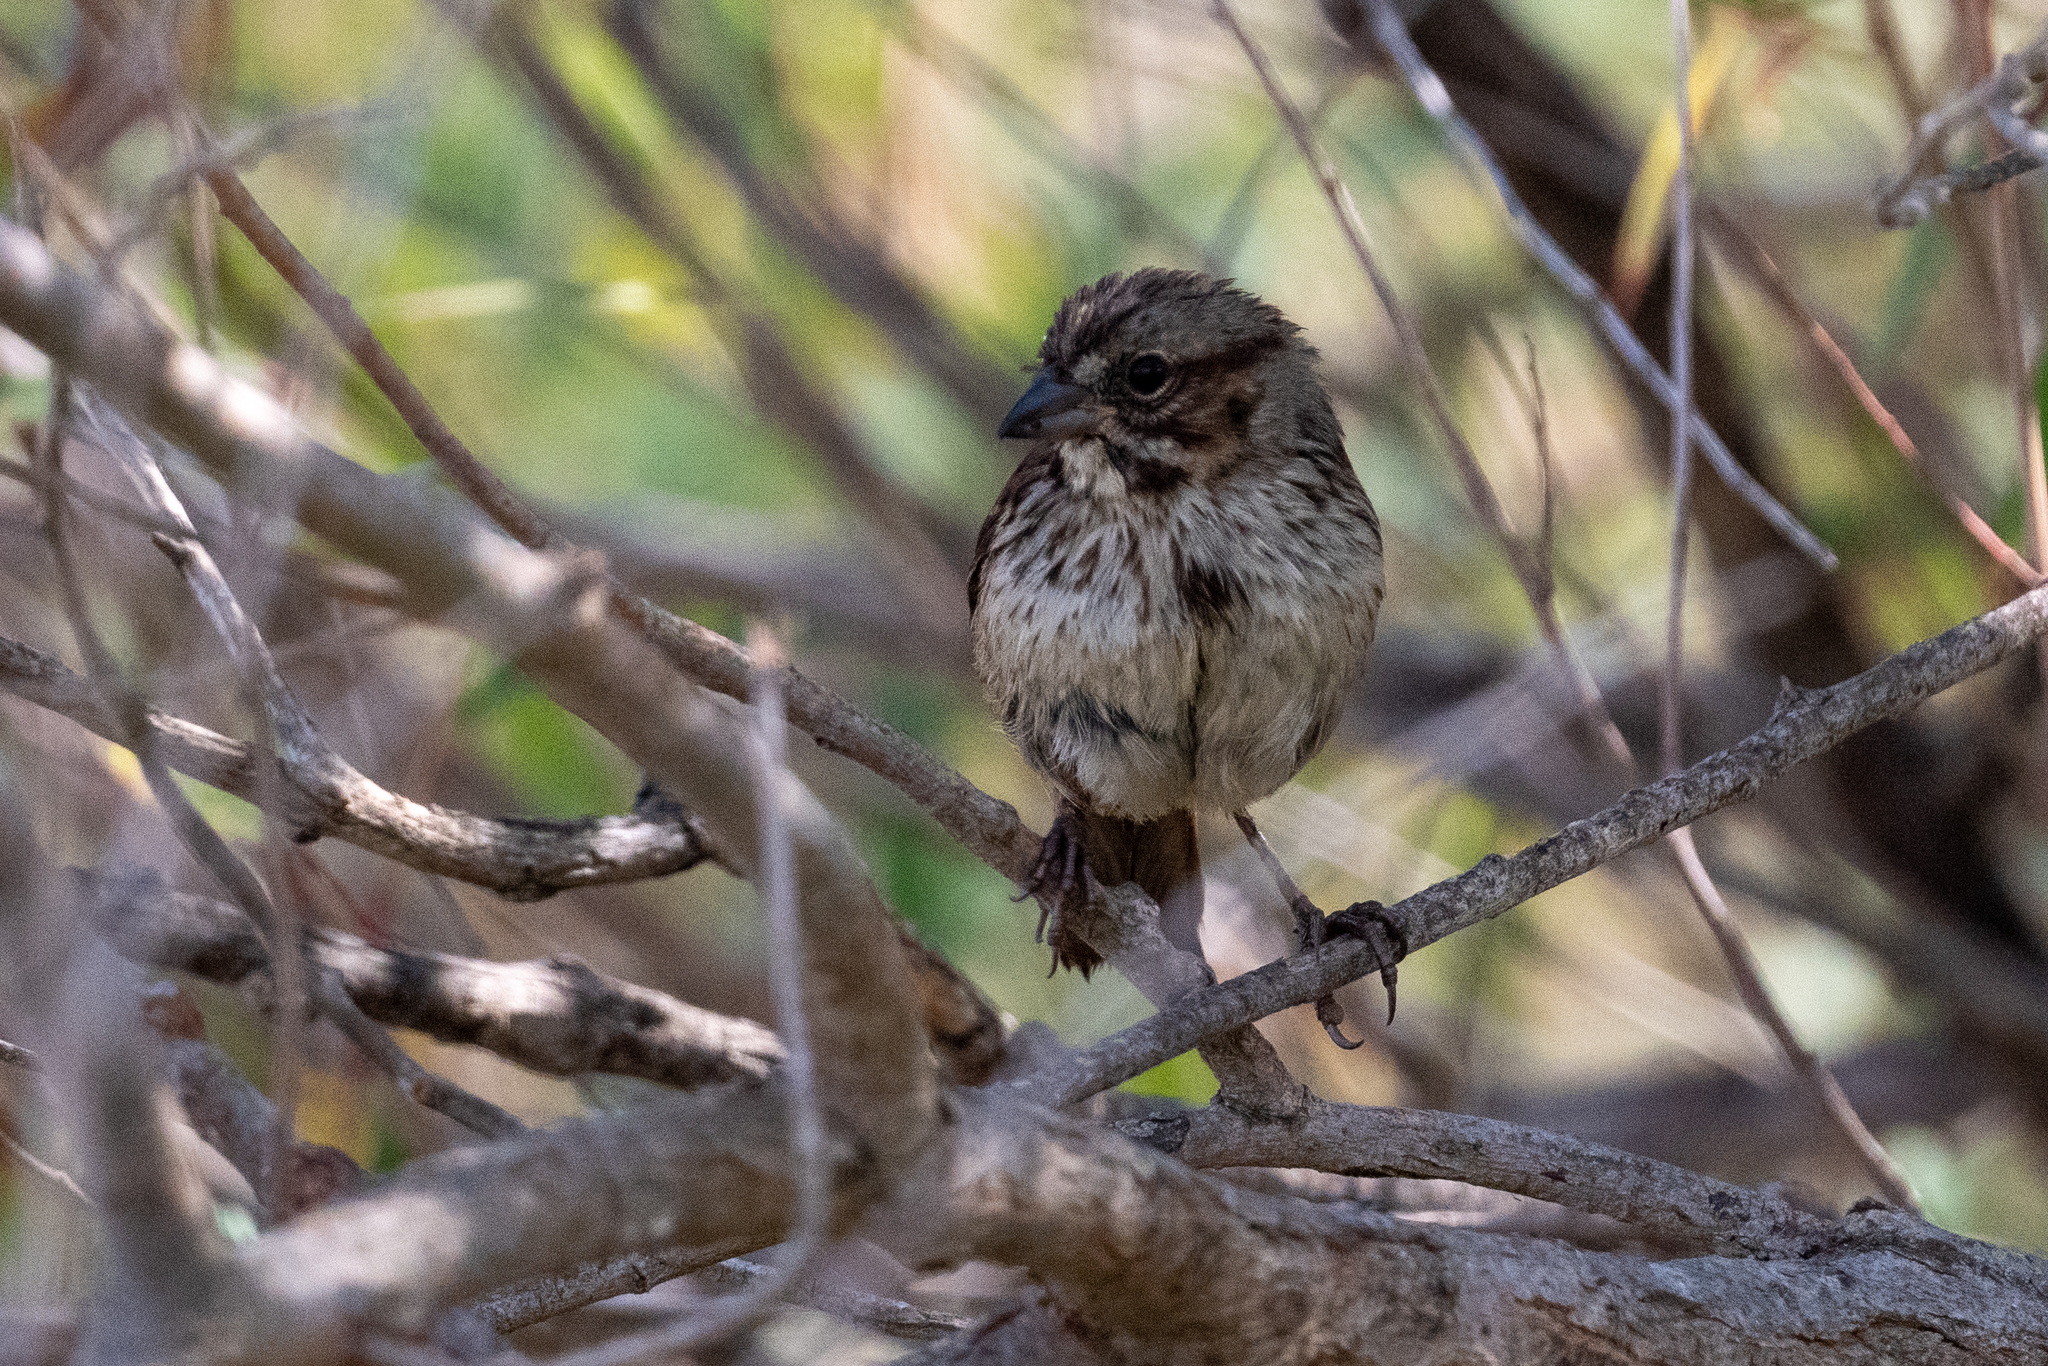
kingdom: Animalia
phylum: Chordata
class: Aves
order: Passeriformes
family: Passerellidae
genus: Melospiza
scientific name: Melospiza melodia
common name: Song sparrow
